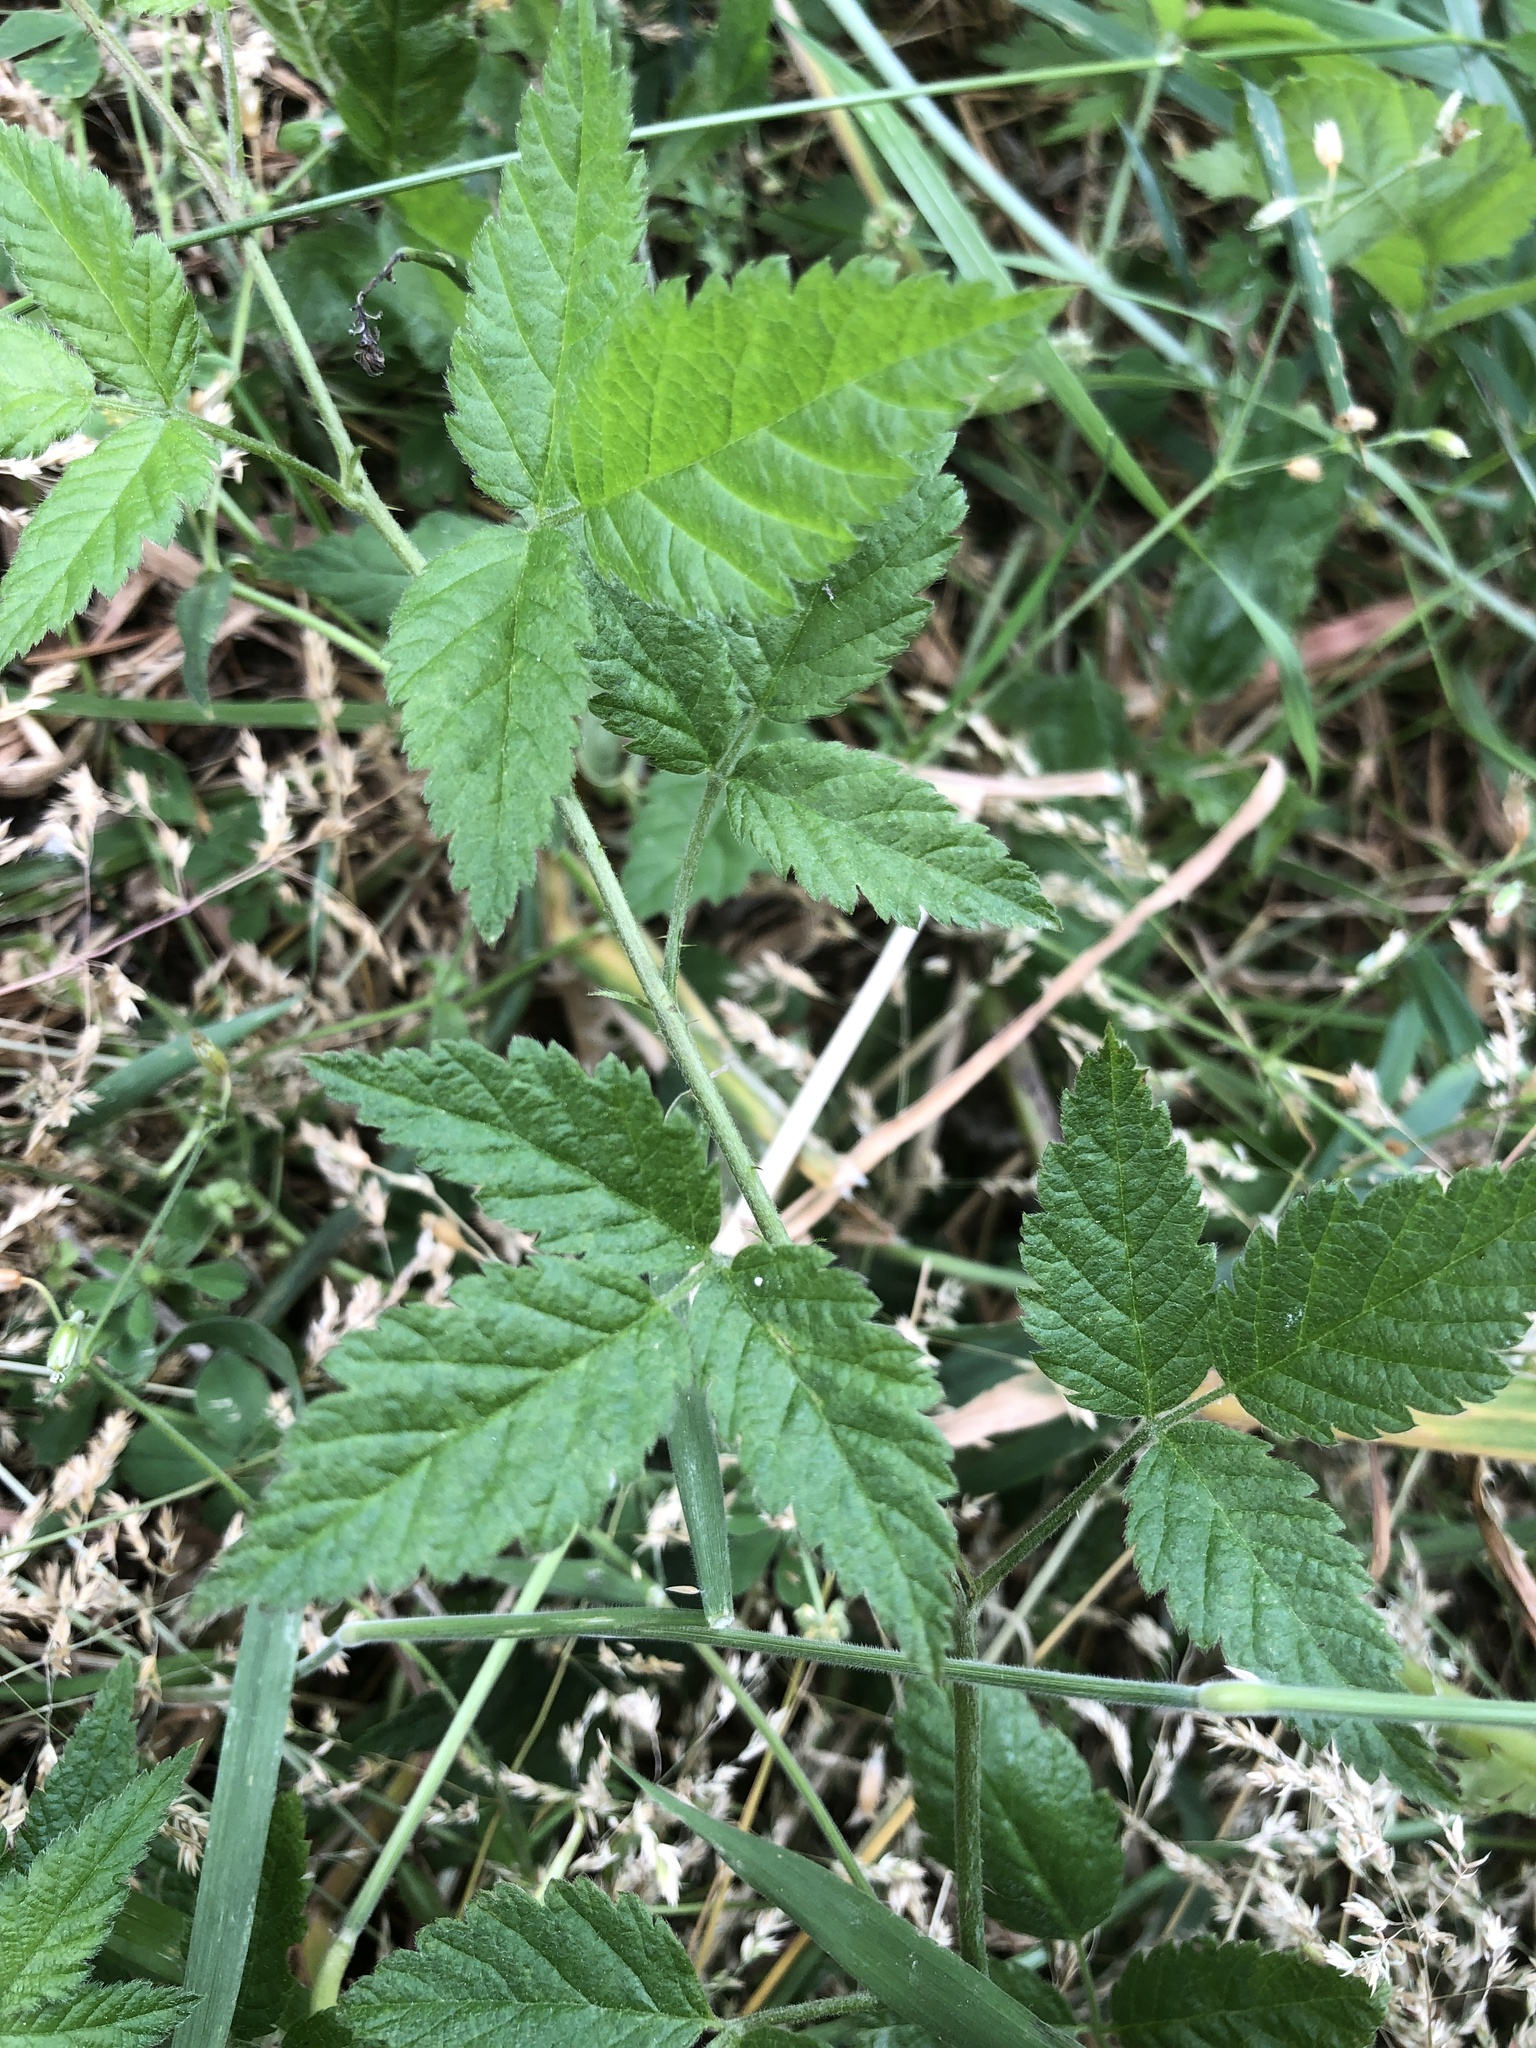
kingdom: Plantae
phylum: Tracheophyta
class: Magnoliopsida
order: Rosales
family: Rosaceae
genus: Rubus
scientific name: Rubus ursinus
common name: Pacific blackberry
